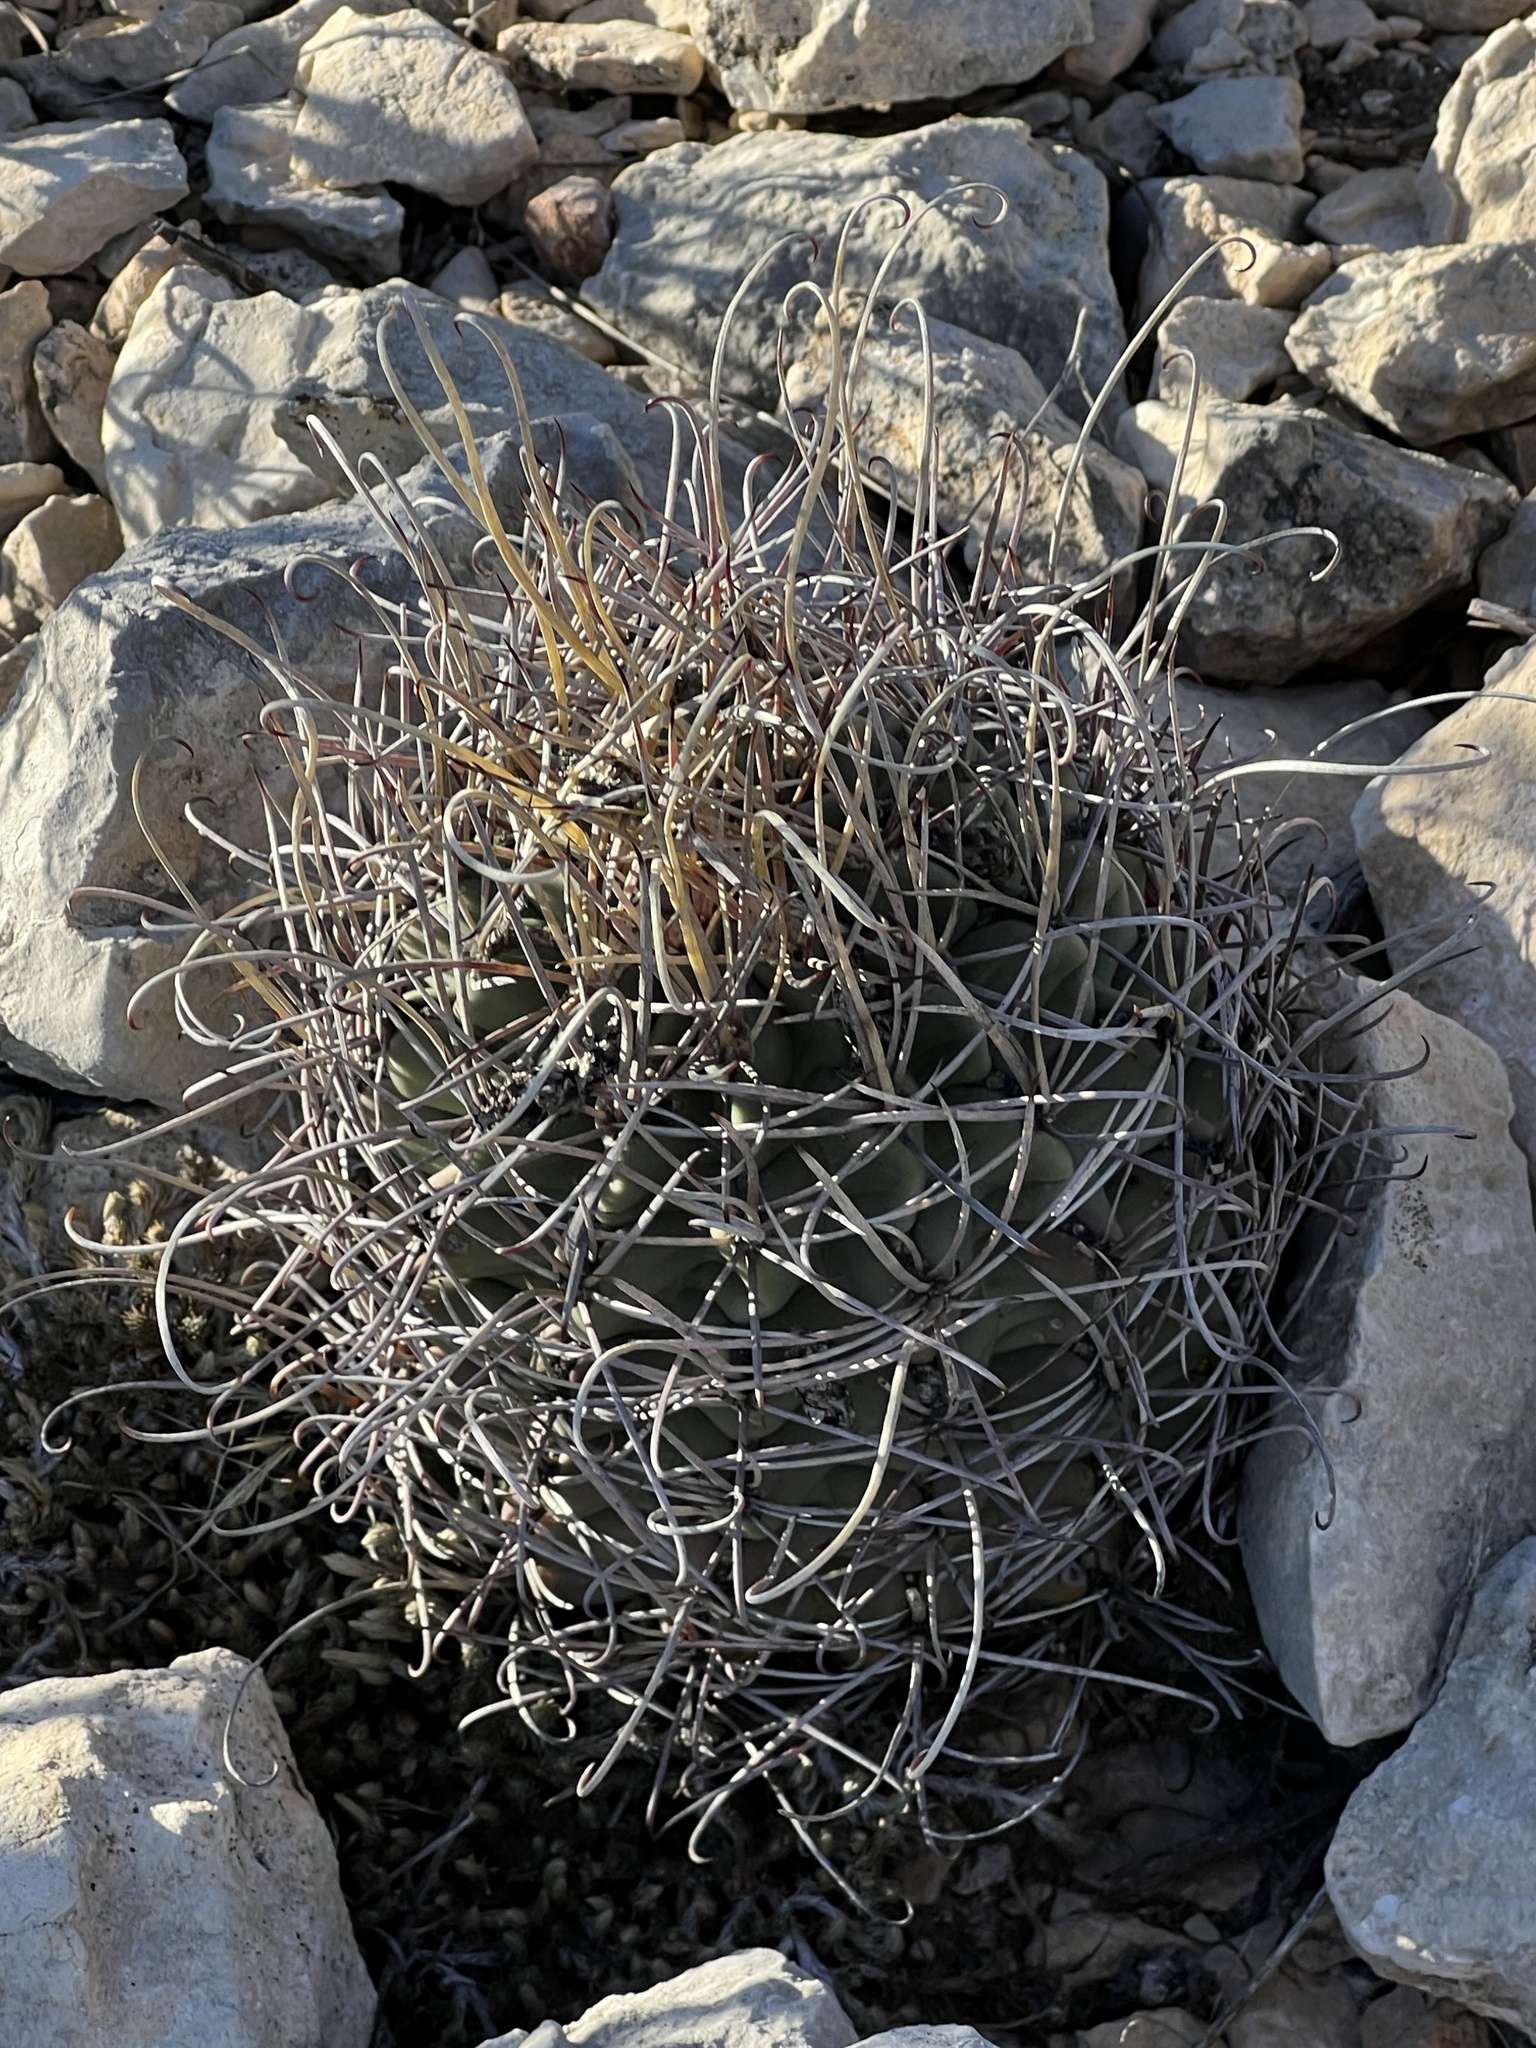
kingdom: Plantae
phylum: Tracheophyta
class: Magnoliopsida
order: Caryophyllales
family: Cactaceae
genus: Ferocactus
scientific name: Ferocactus uncinatus
